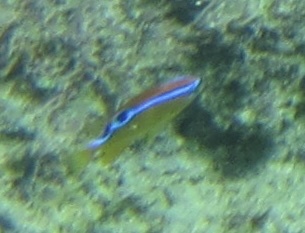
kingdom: Animalia
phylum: Chordata
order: Perciformes
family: Pomacentridae
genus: Chrysiptera
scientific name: Chrysiptera brownriggii
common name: Surge demoiselle
